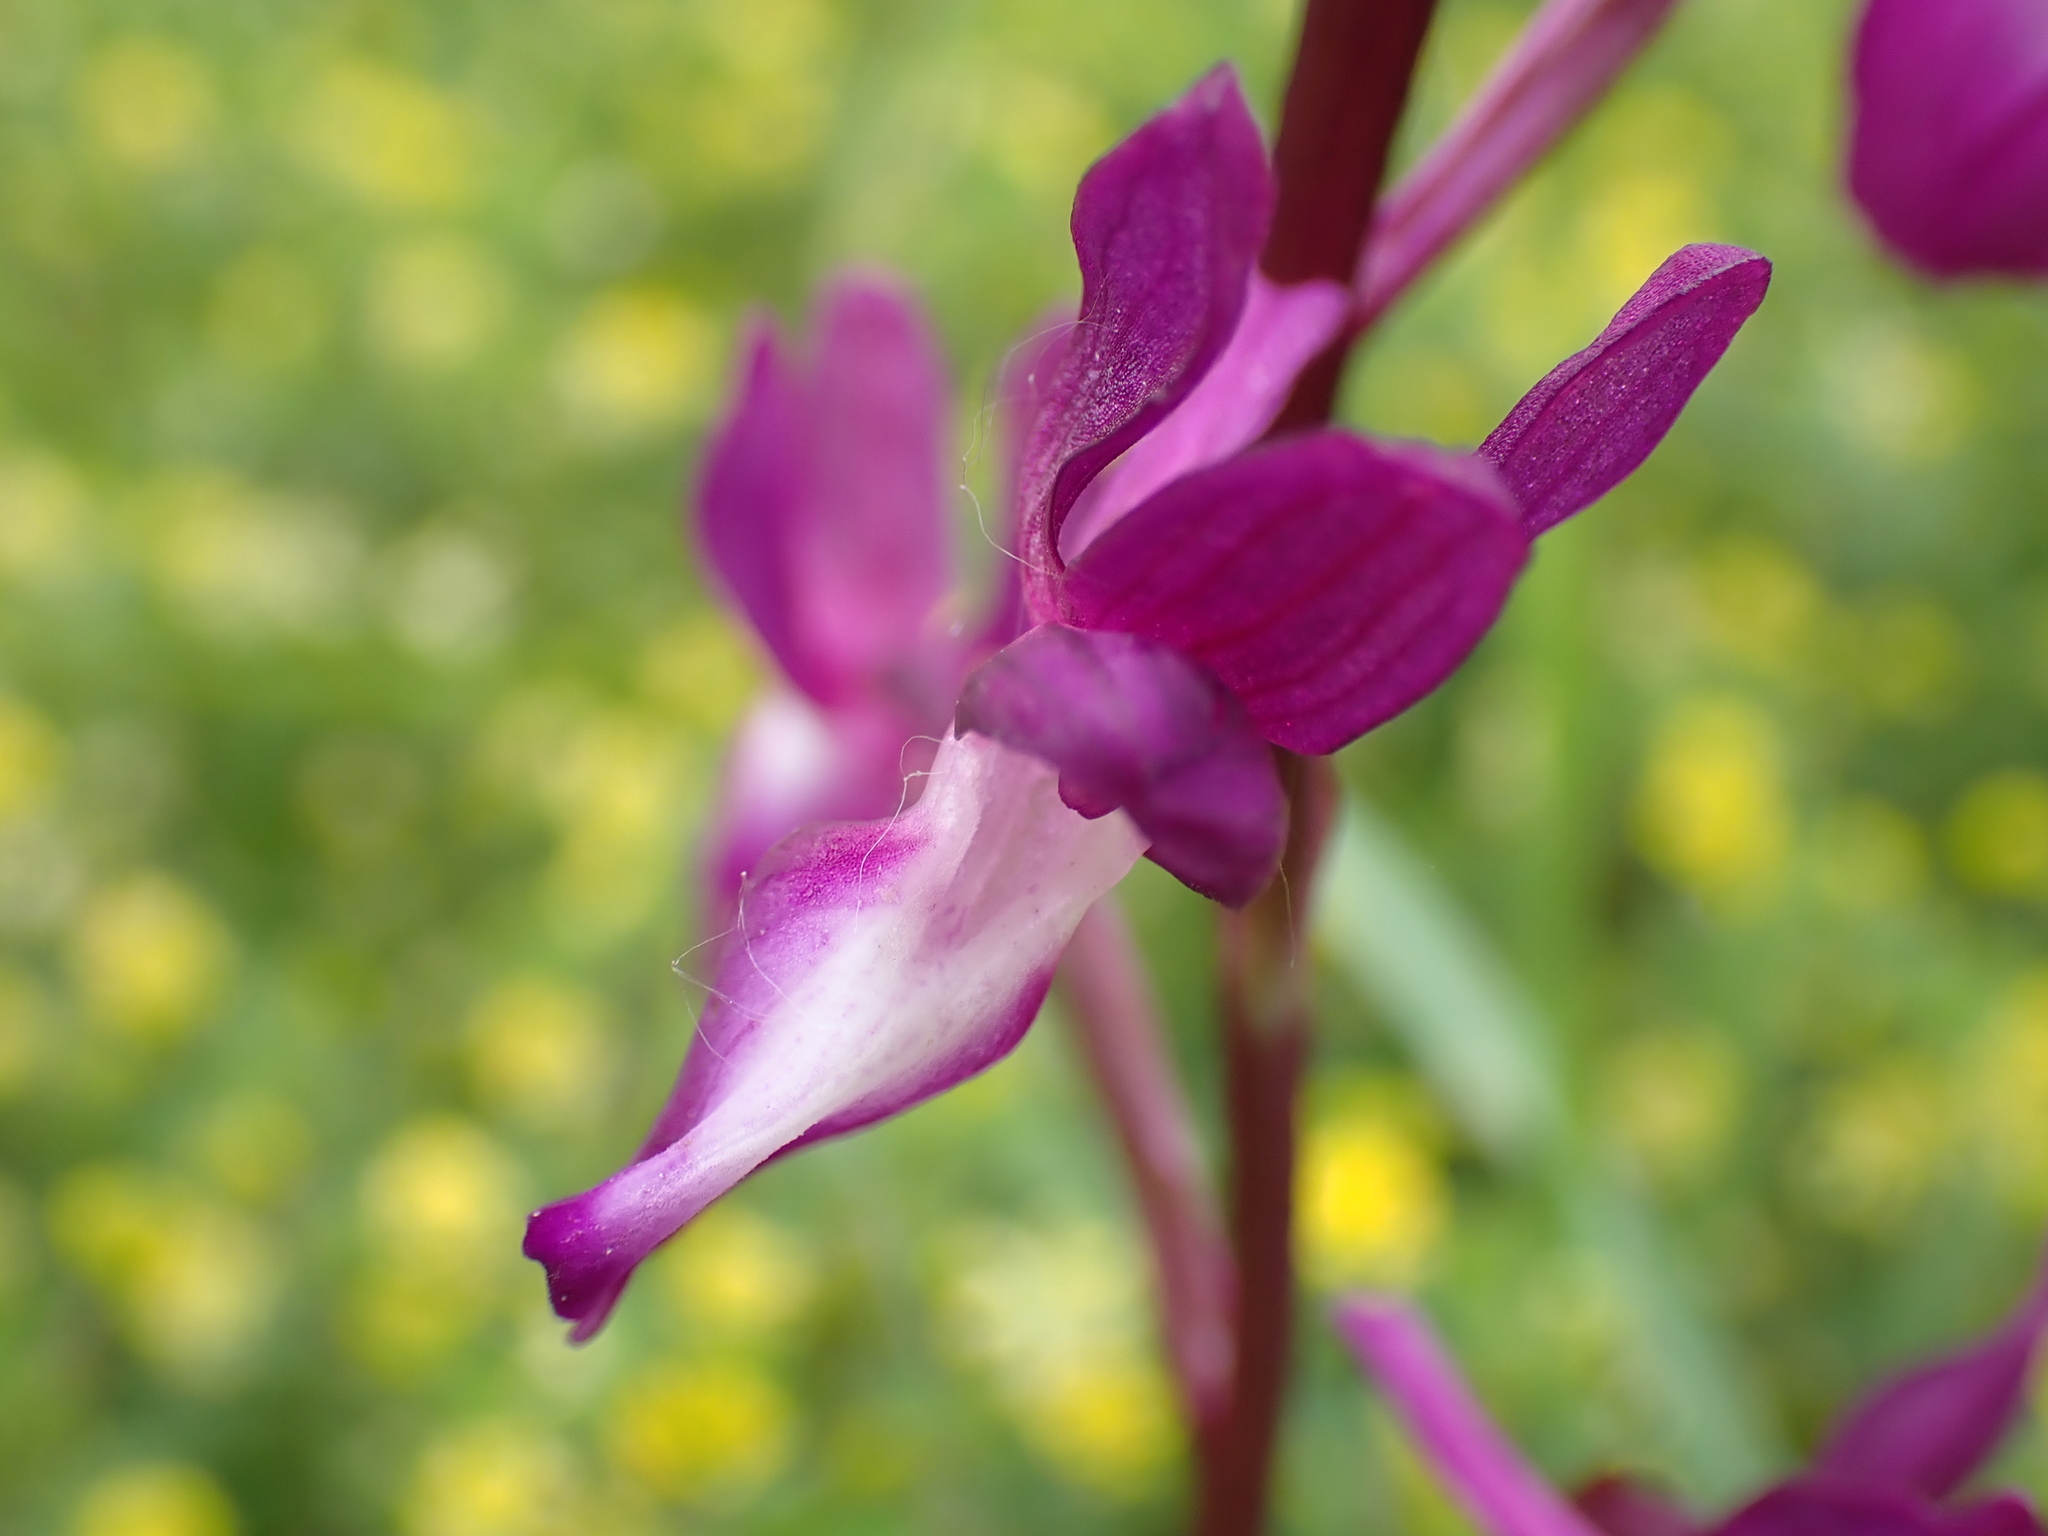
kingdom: Plantae
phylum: Tracheophyta
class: Liliopsida
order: Asparagales
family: Orchidaceae
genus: Anacamptis
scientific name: Anacamptis laxiflora
